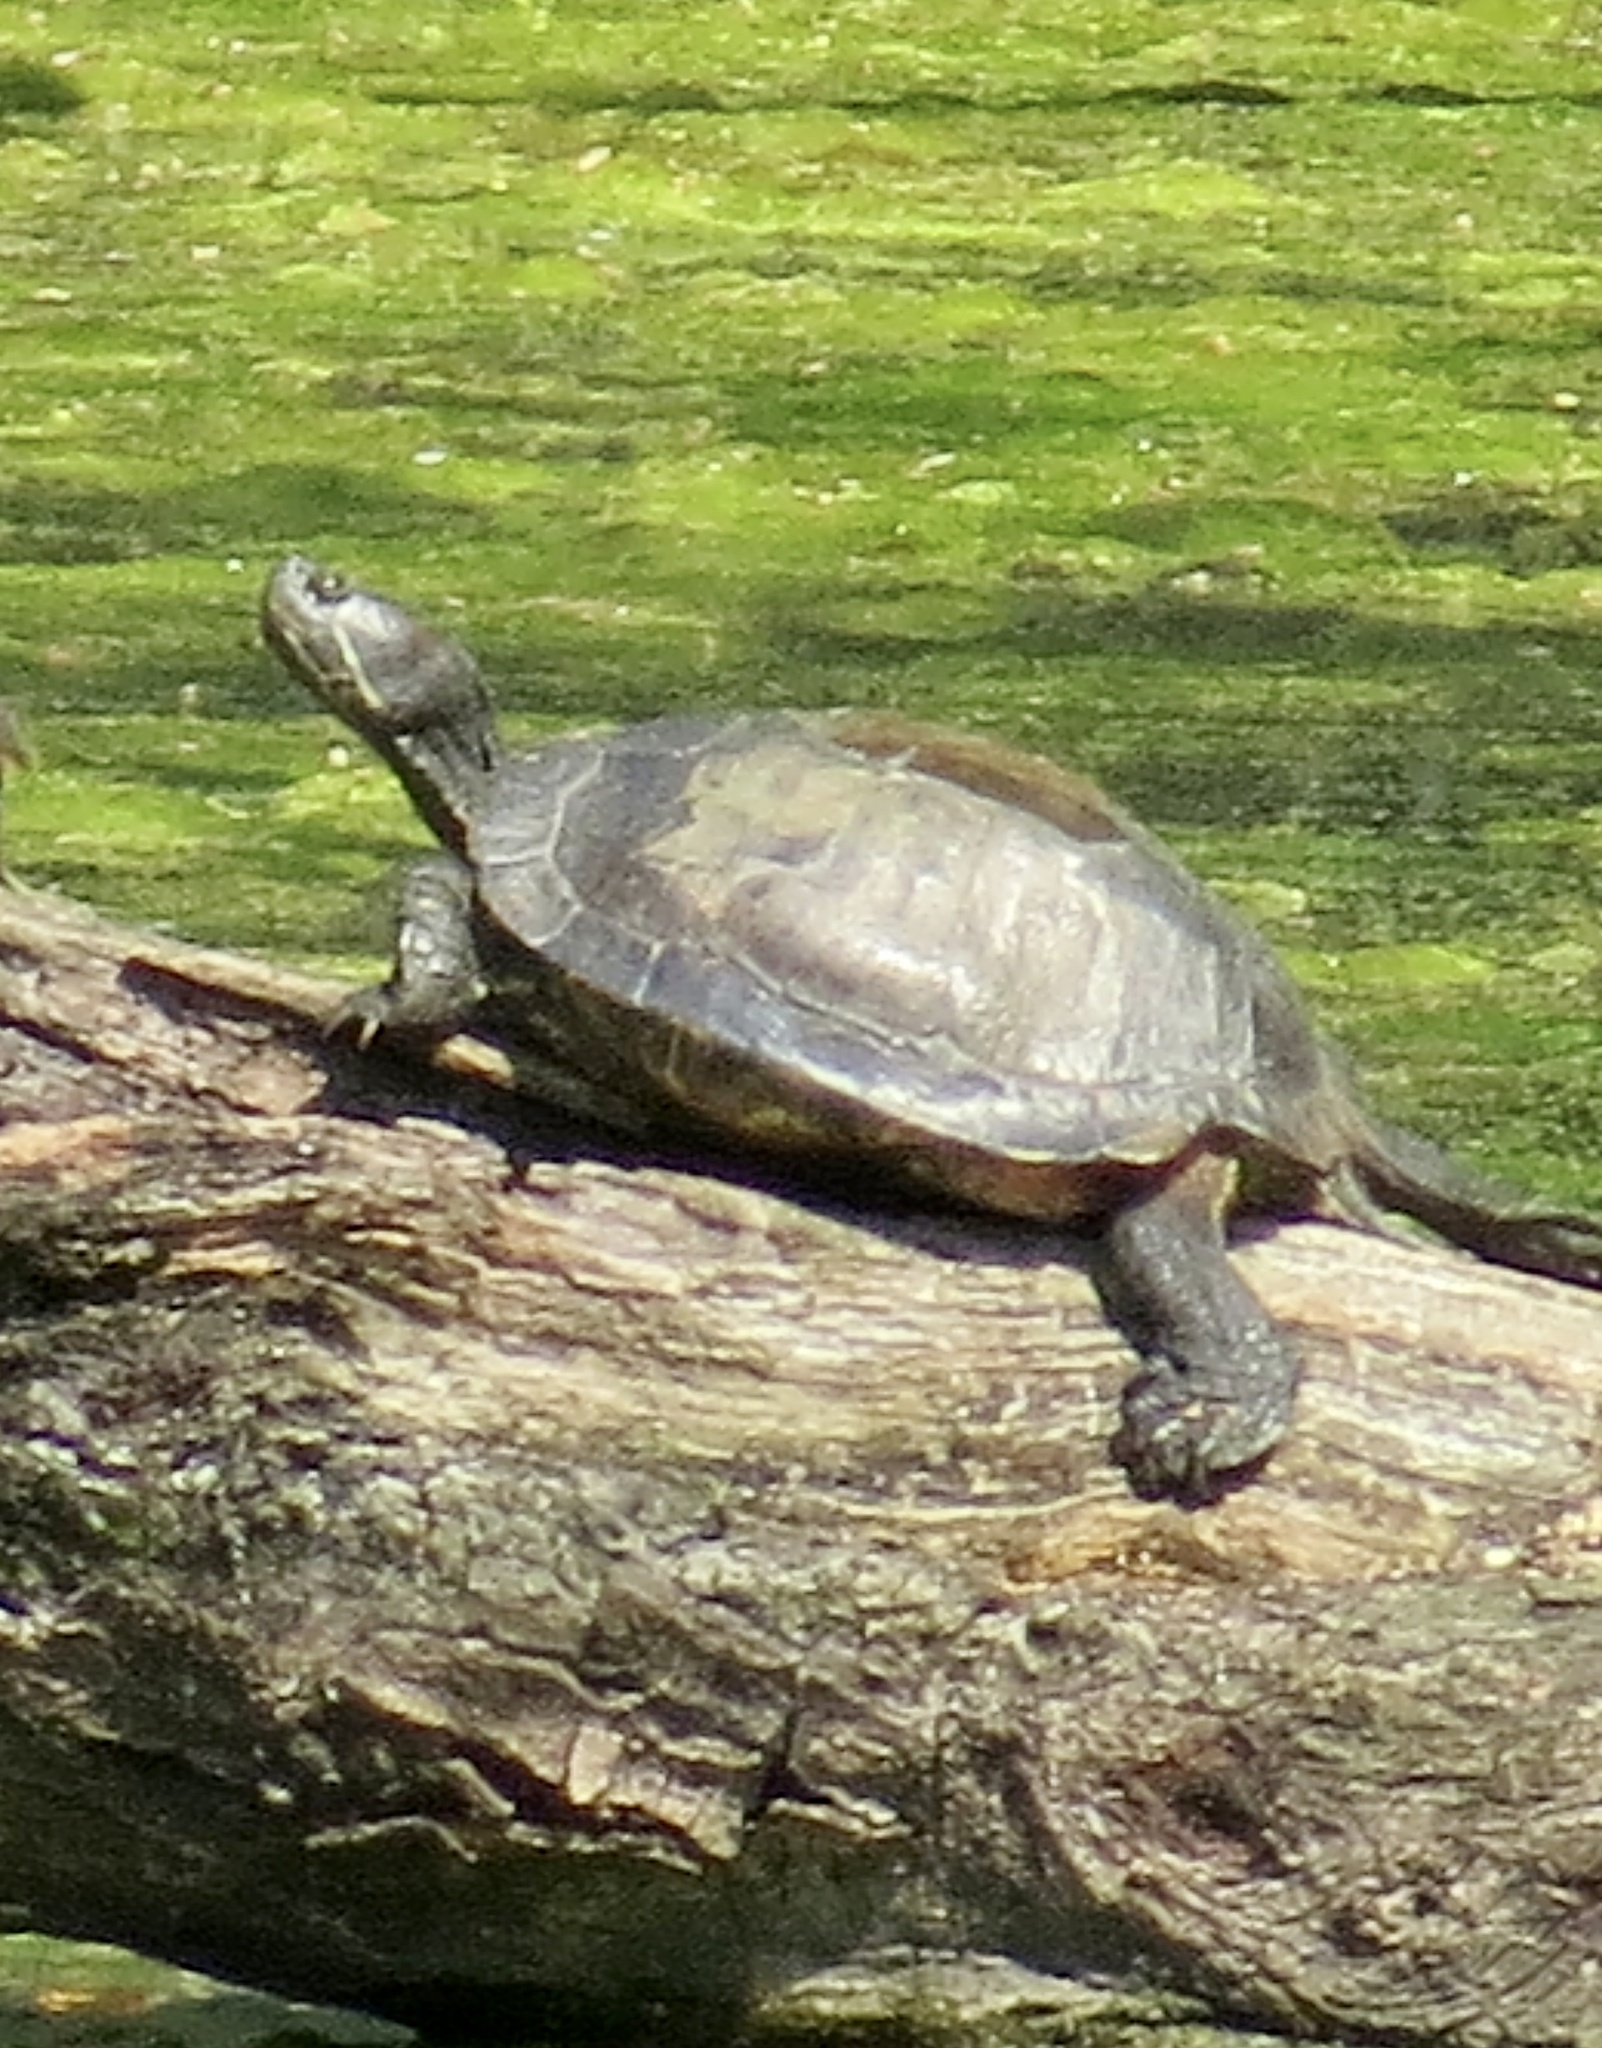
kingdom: Animalia
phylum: Chordata
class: Testudines
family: Emydidae
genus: Trachemys
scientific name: Trachemys scripta
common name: Slider
